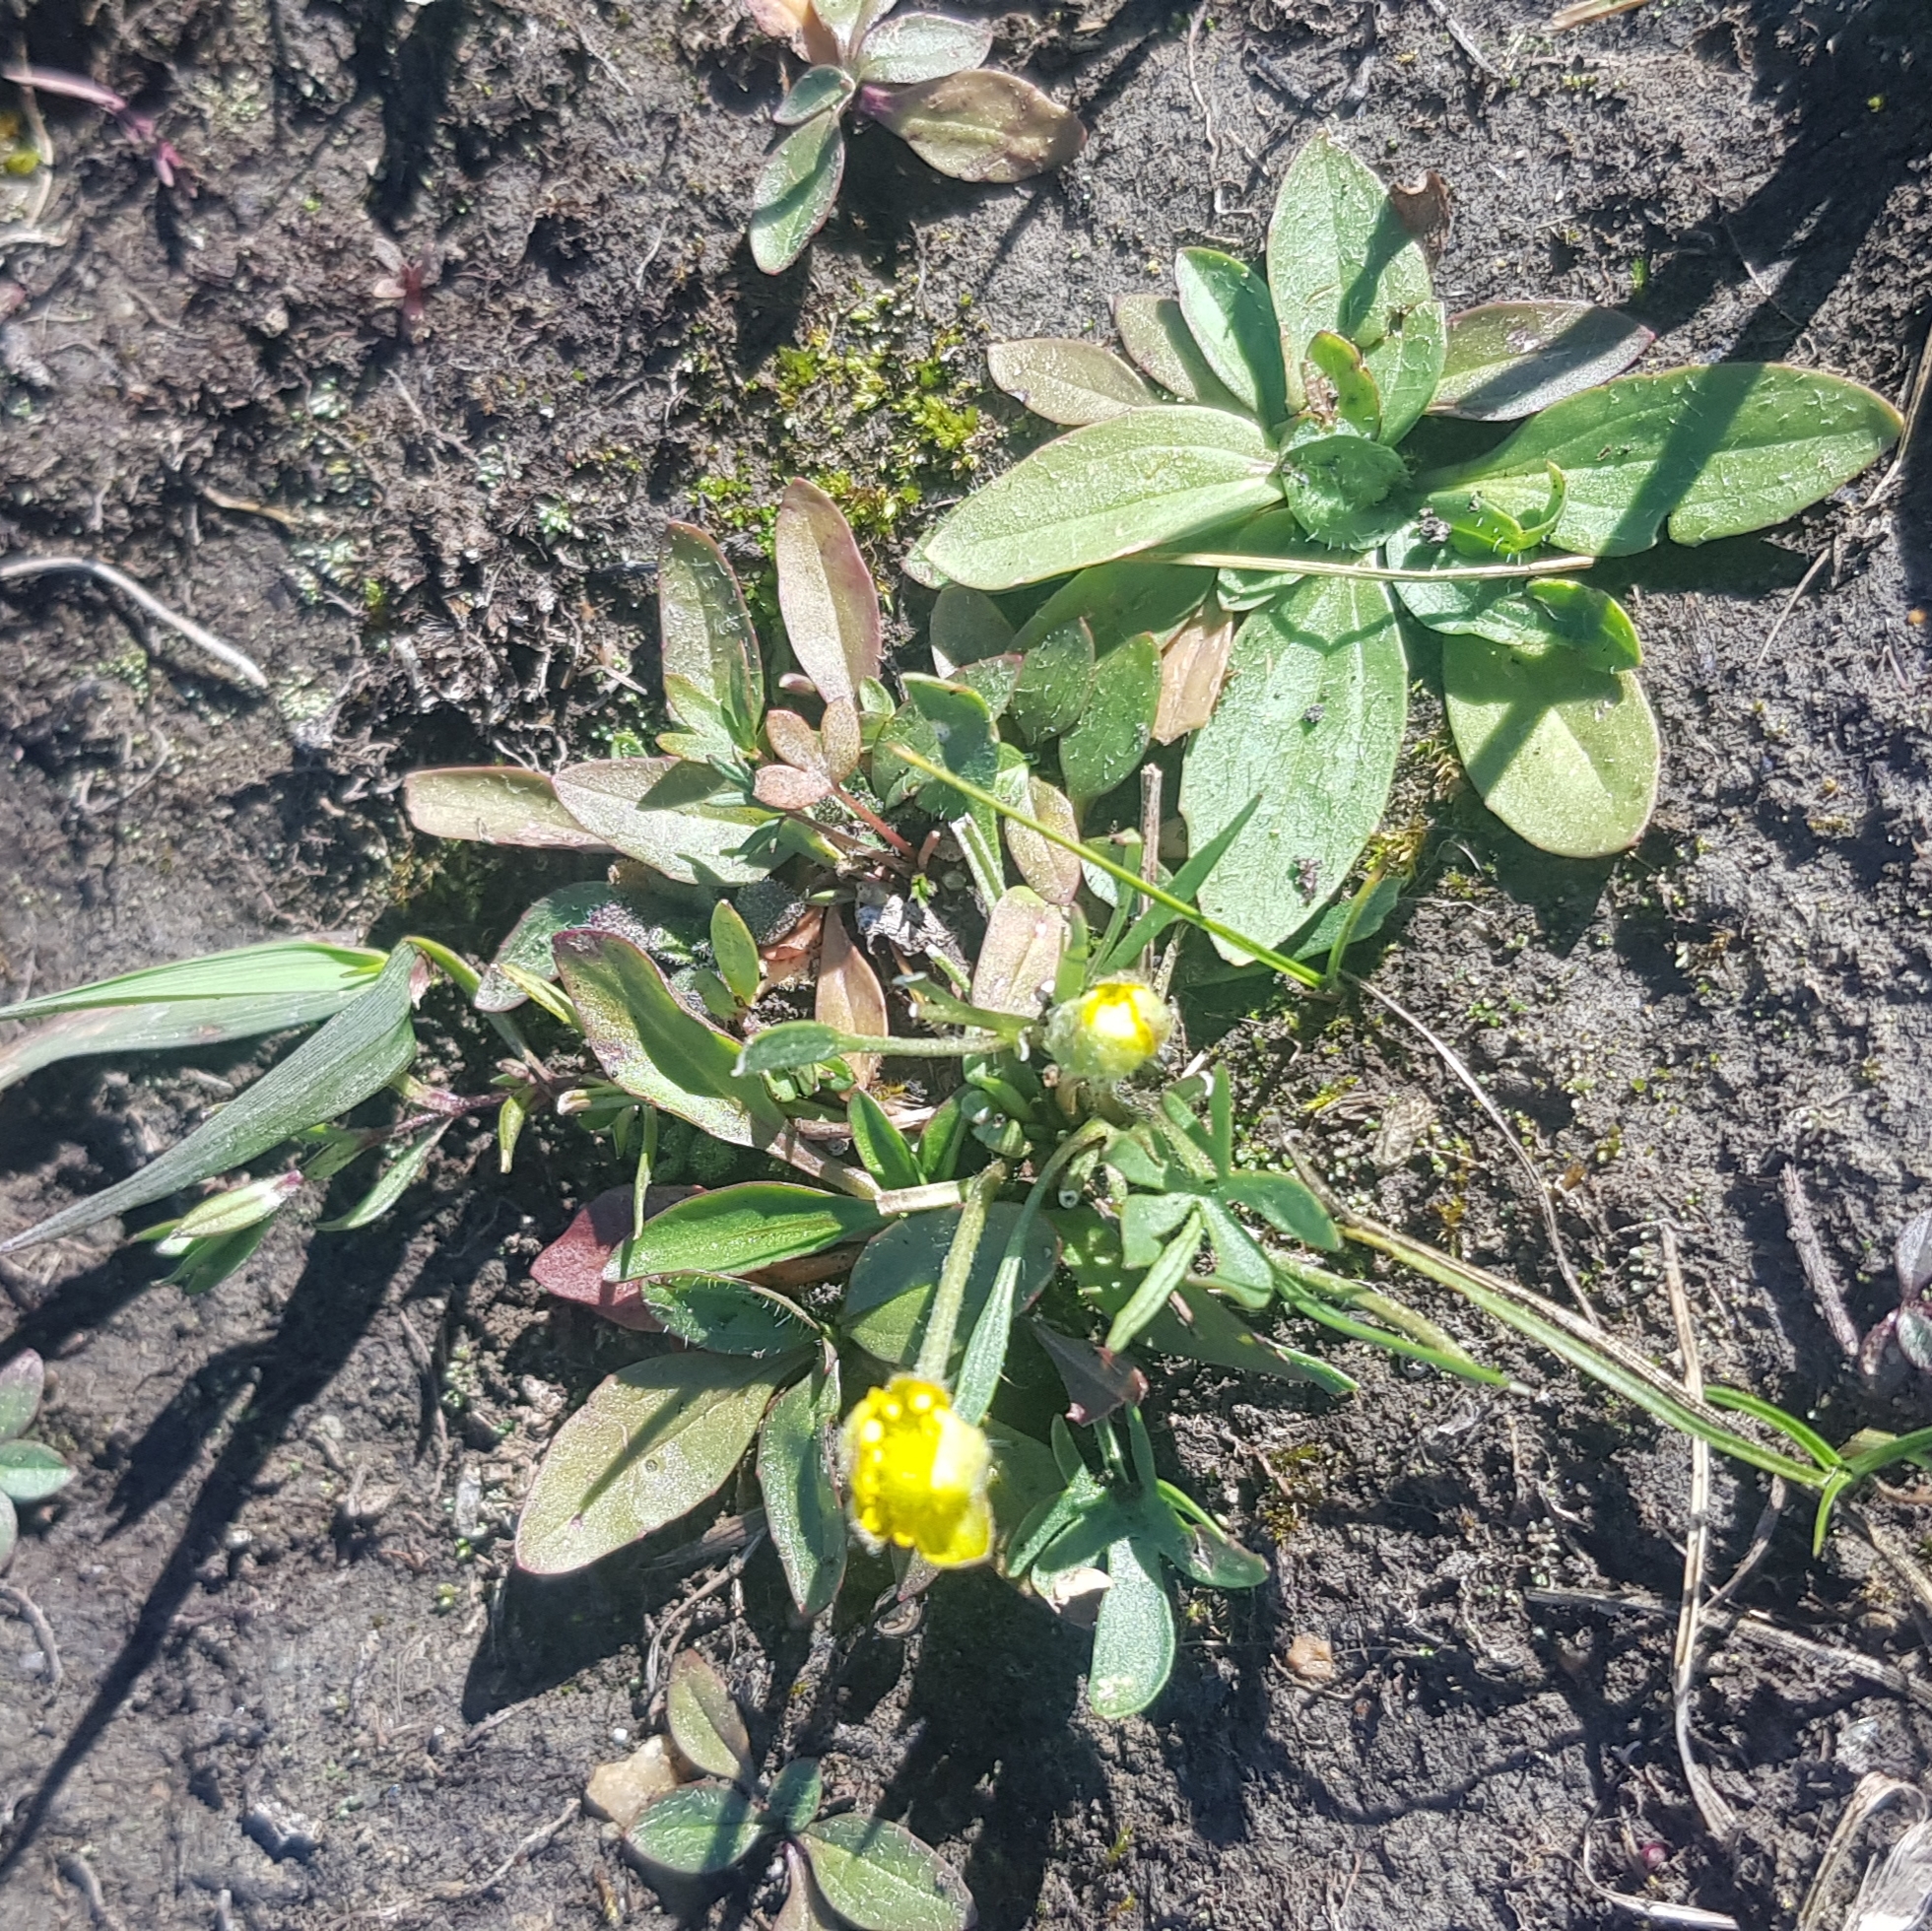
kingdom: Plantae
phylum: Tracheophyta
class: Magnoliopsida
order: Ranunculales
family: Ranunculaceae
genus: Ranunculus
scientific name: Ranunculus propinquus
